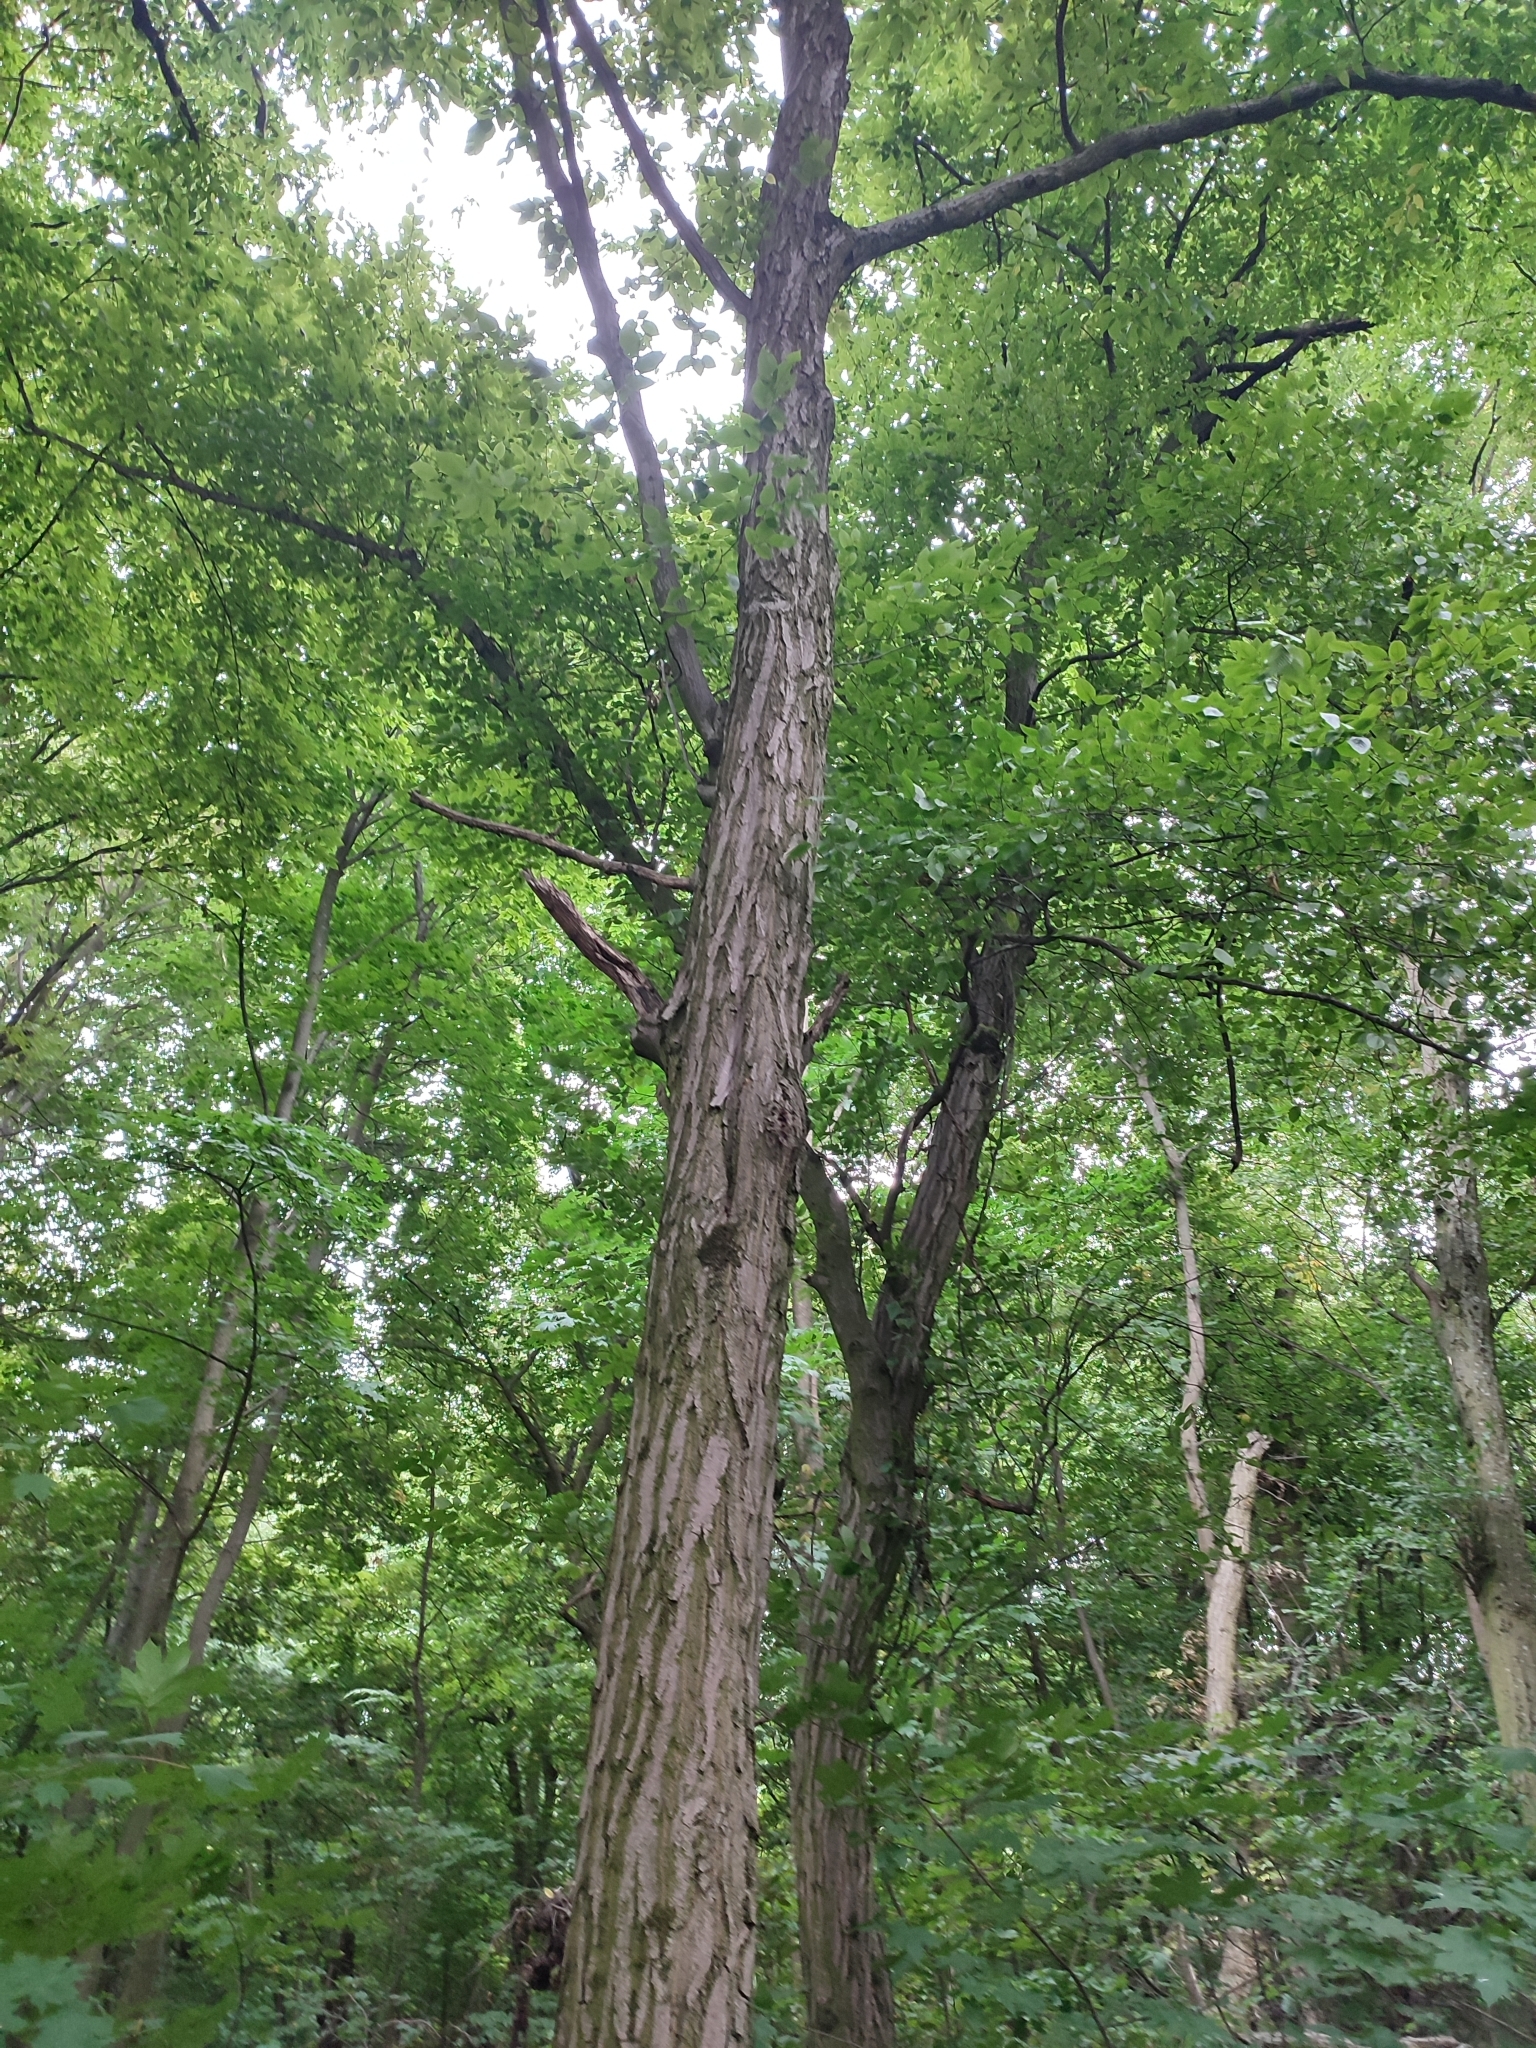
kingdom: Plantae
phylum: Tracheophyta
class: Magnoliopsida
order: Fagales
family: Betulaceae
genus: Carpinus
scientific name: Carpinus betulus
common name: Hornbeam
